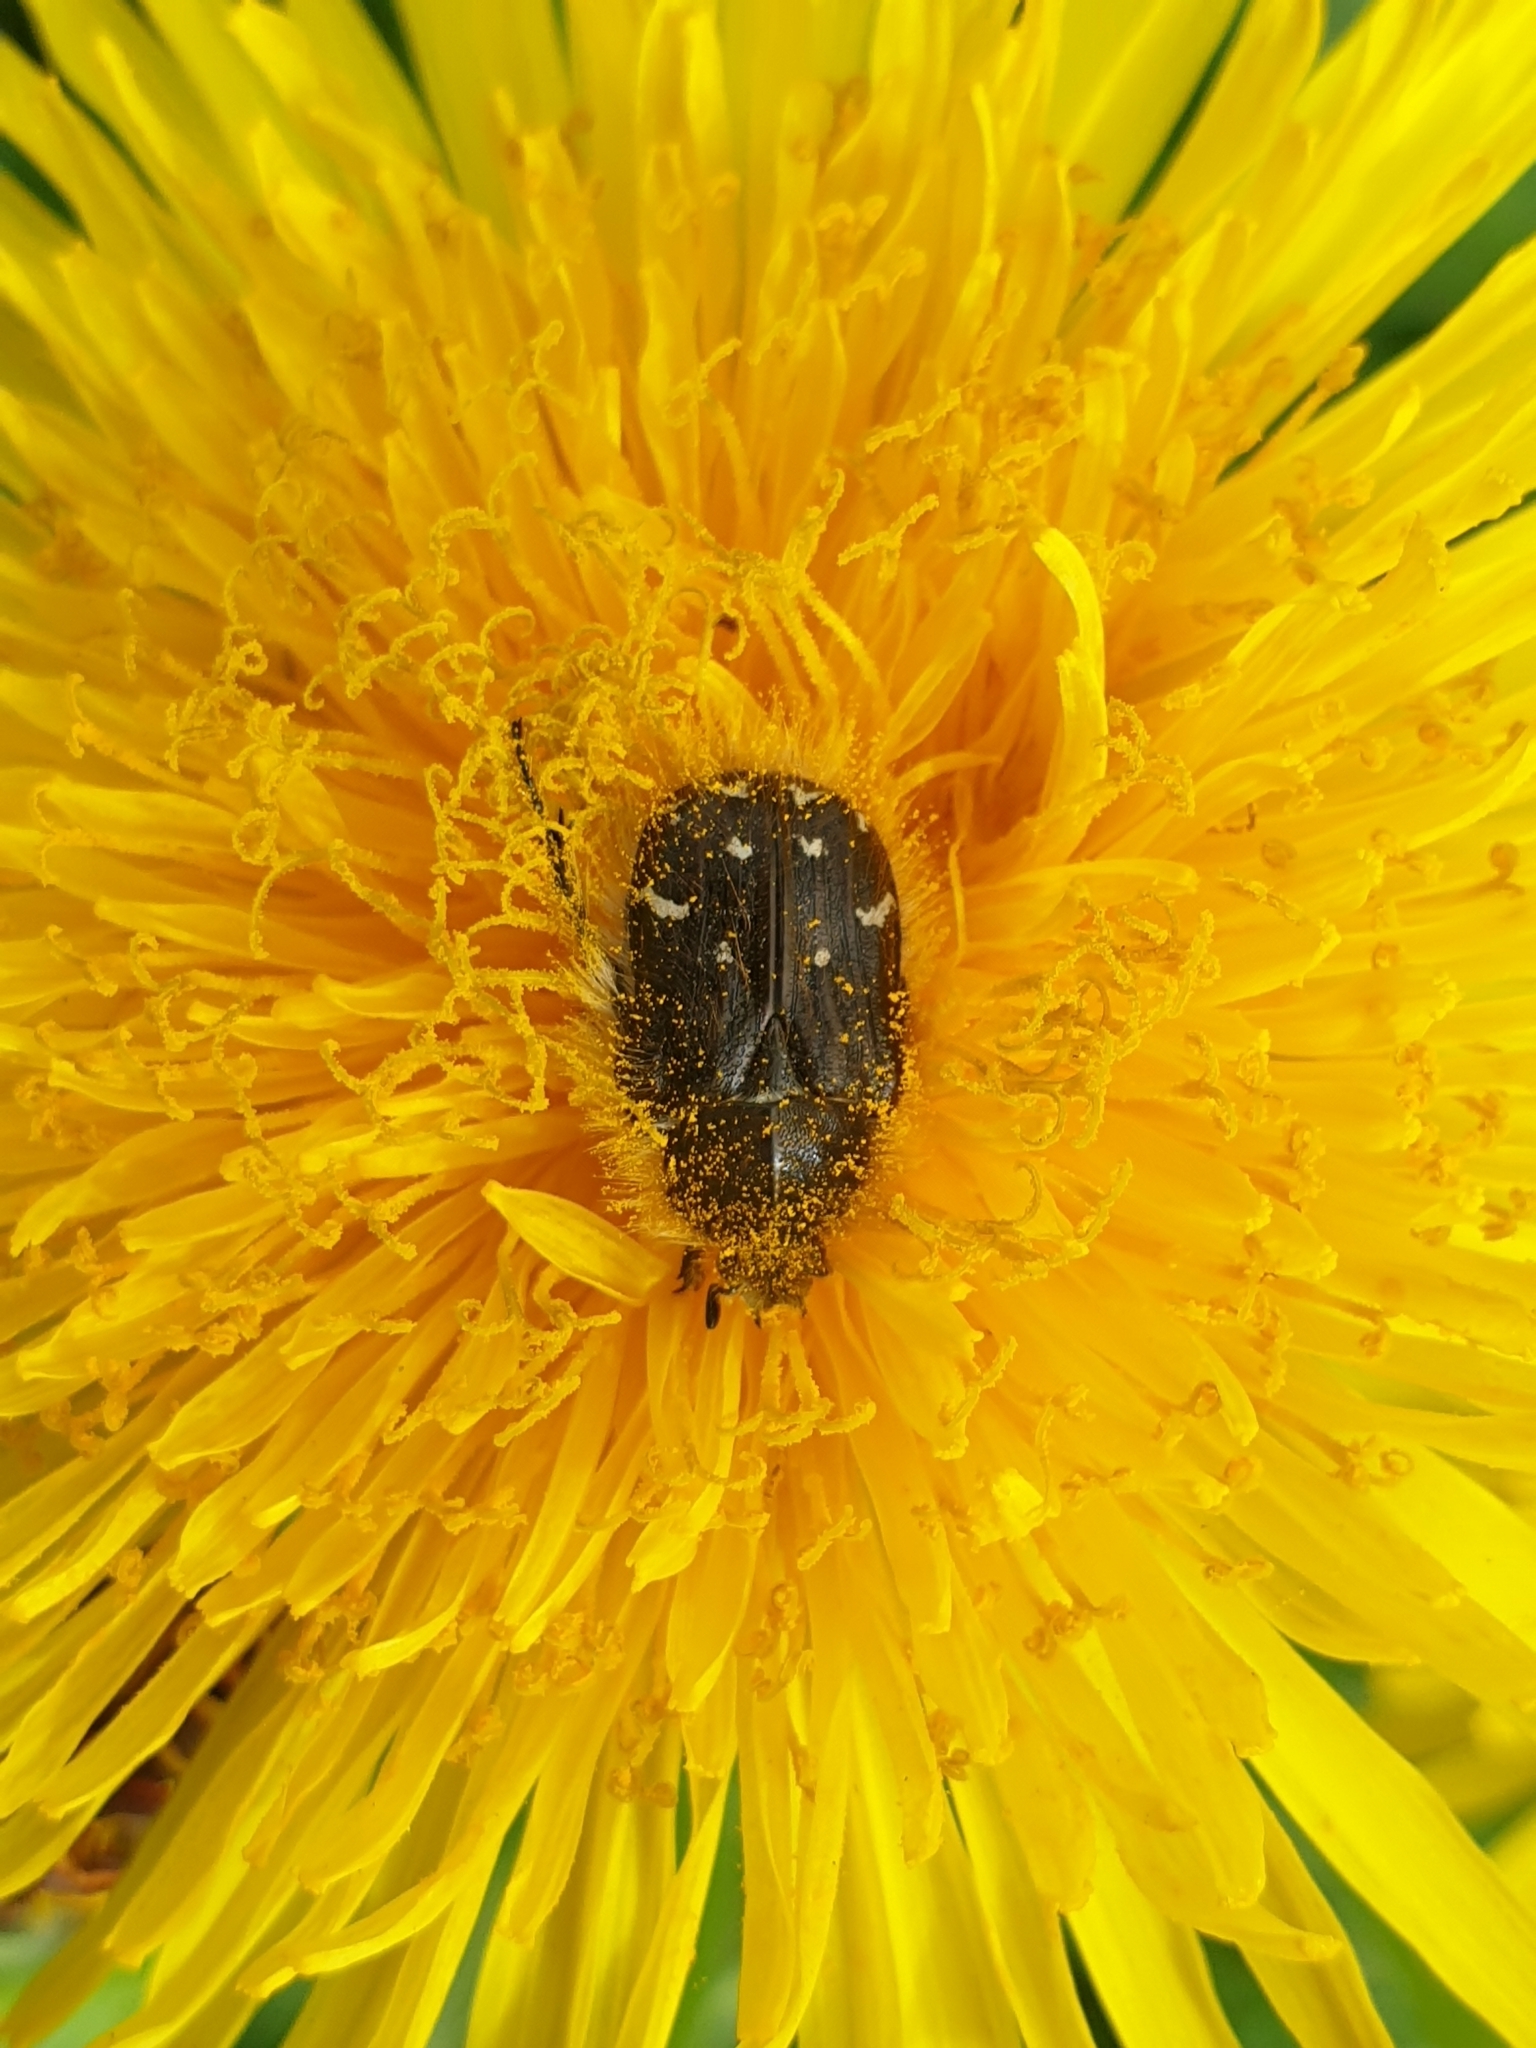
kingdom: Animalia
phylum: Arthropoda
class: Insecta
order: Coleoptera
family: Scarabaeidae
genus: Tropinota
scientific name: Tropinota hirta
